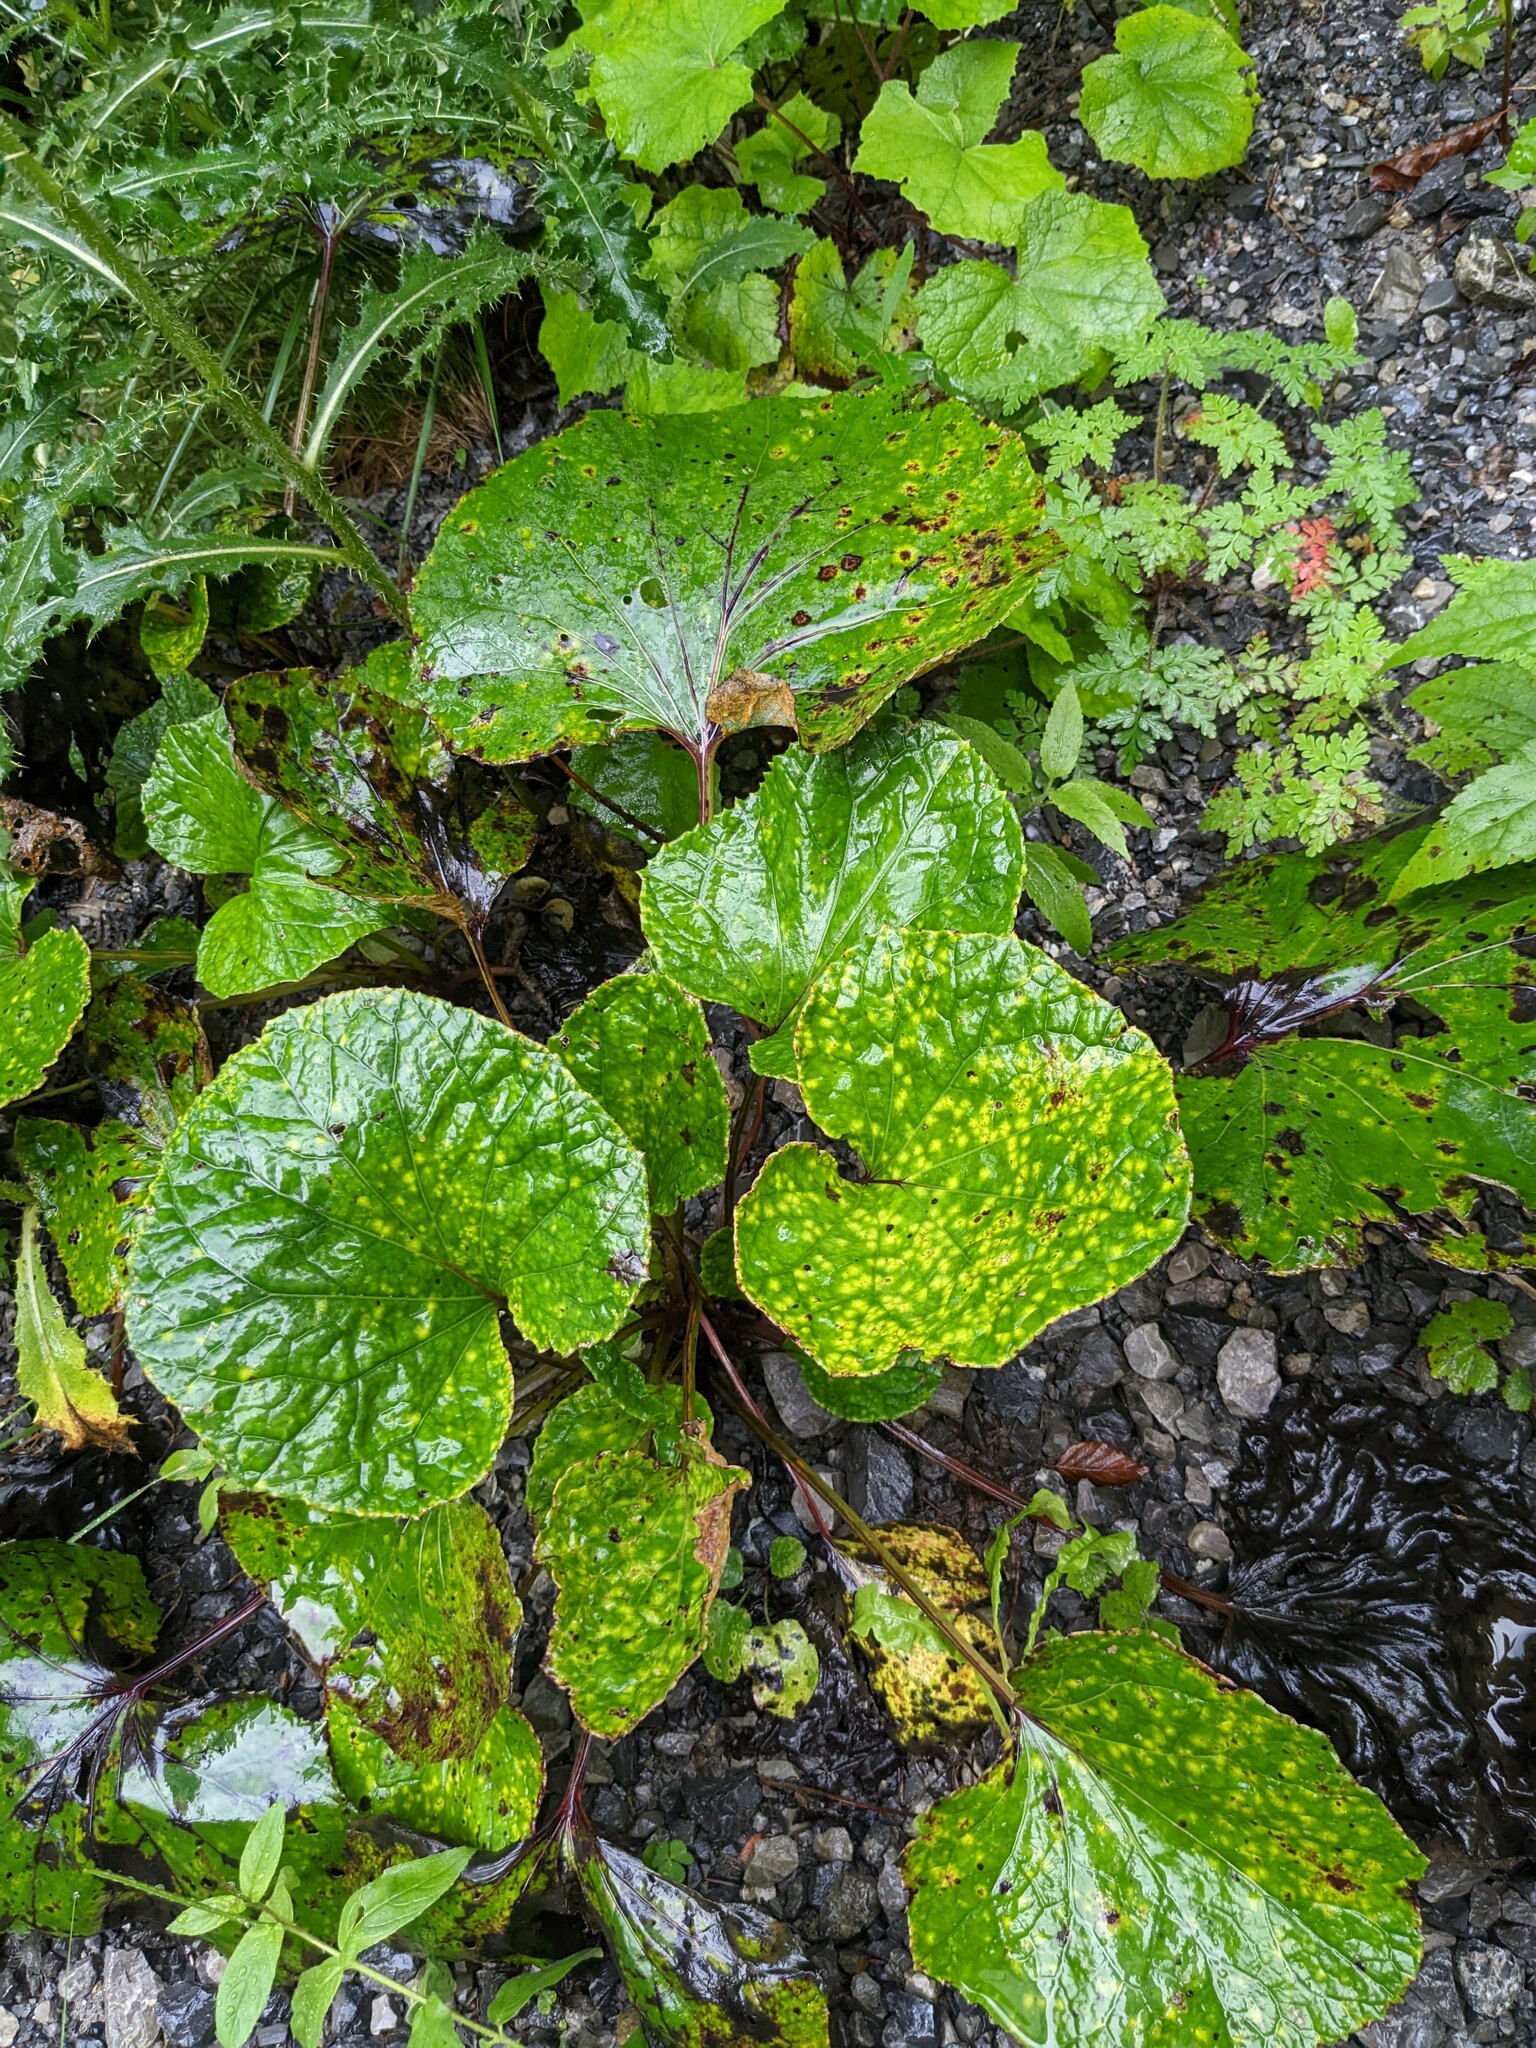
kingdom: Plantae
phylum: Tracheophyta
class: Magnoliopsida
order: Asterales
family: Asteraceae
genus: Tussilago
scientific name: Tussilago farfara
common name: Coltsfoot
